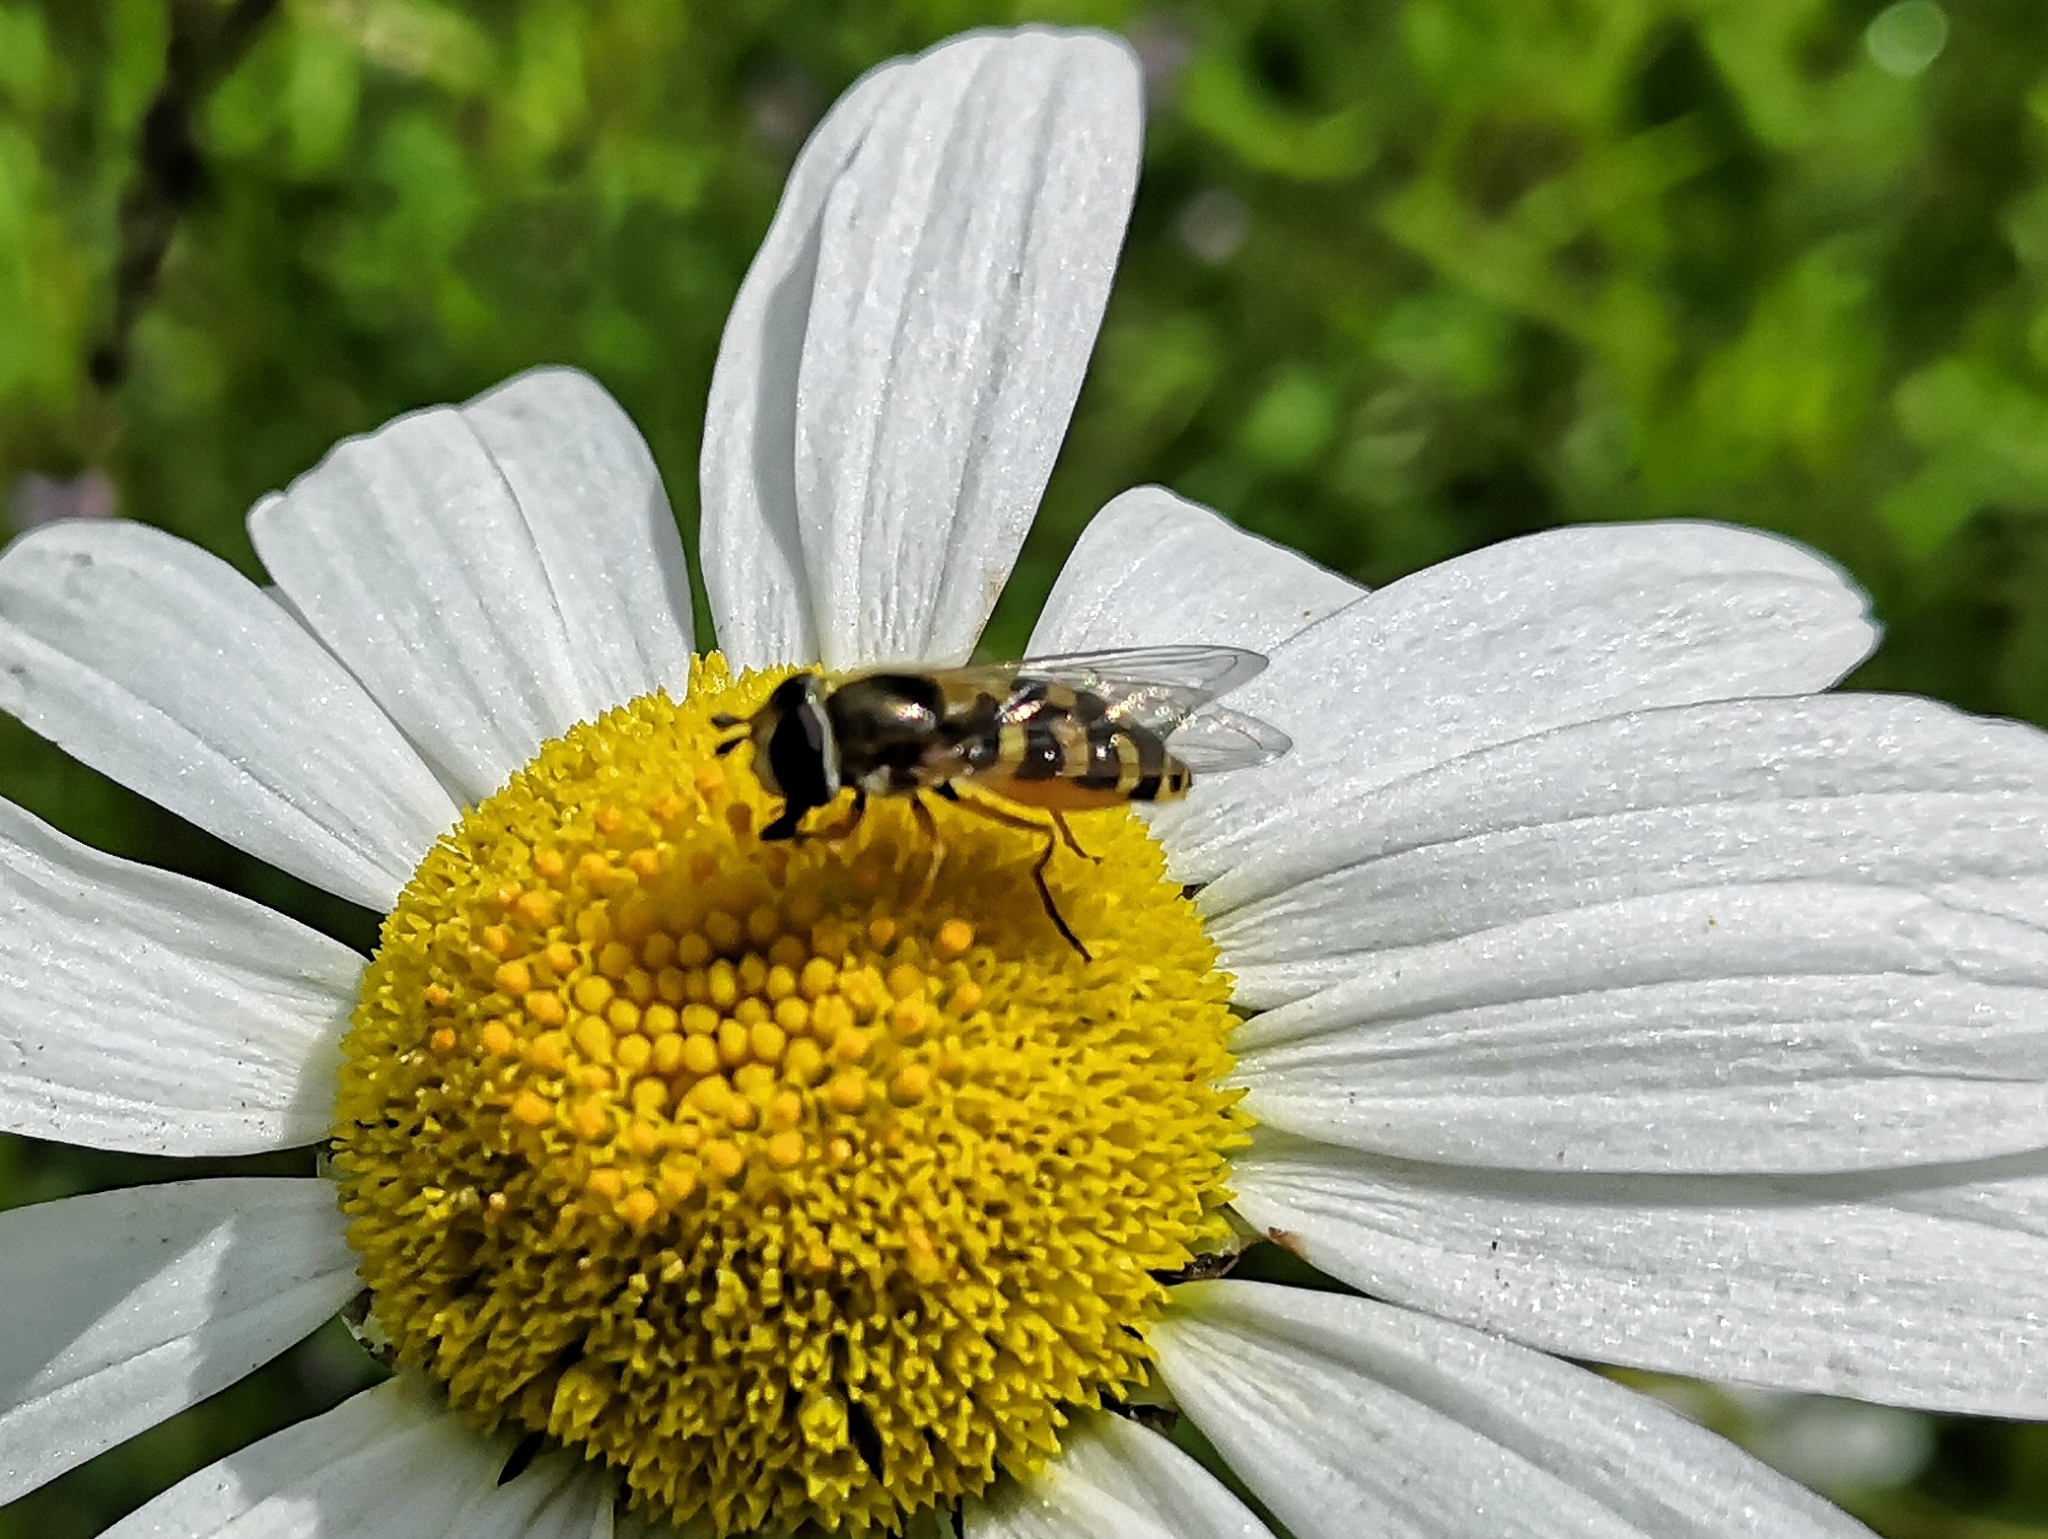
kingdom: Animalia
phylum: Arthropoda
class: Insecta
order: Diptera
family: Syrphidae
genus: Eupeodes
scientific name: Eupeodes corollae
